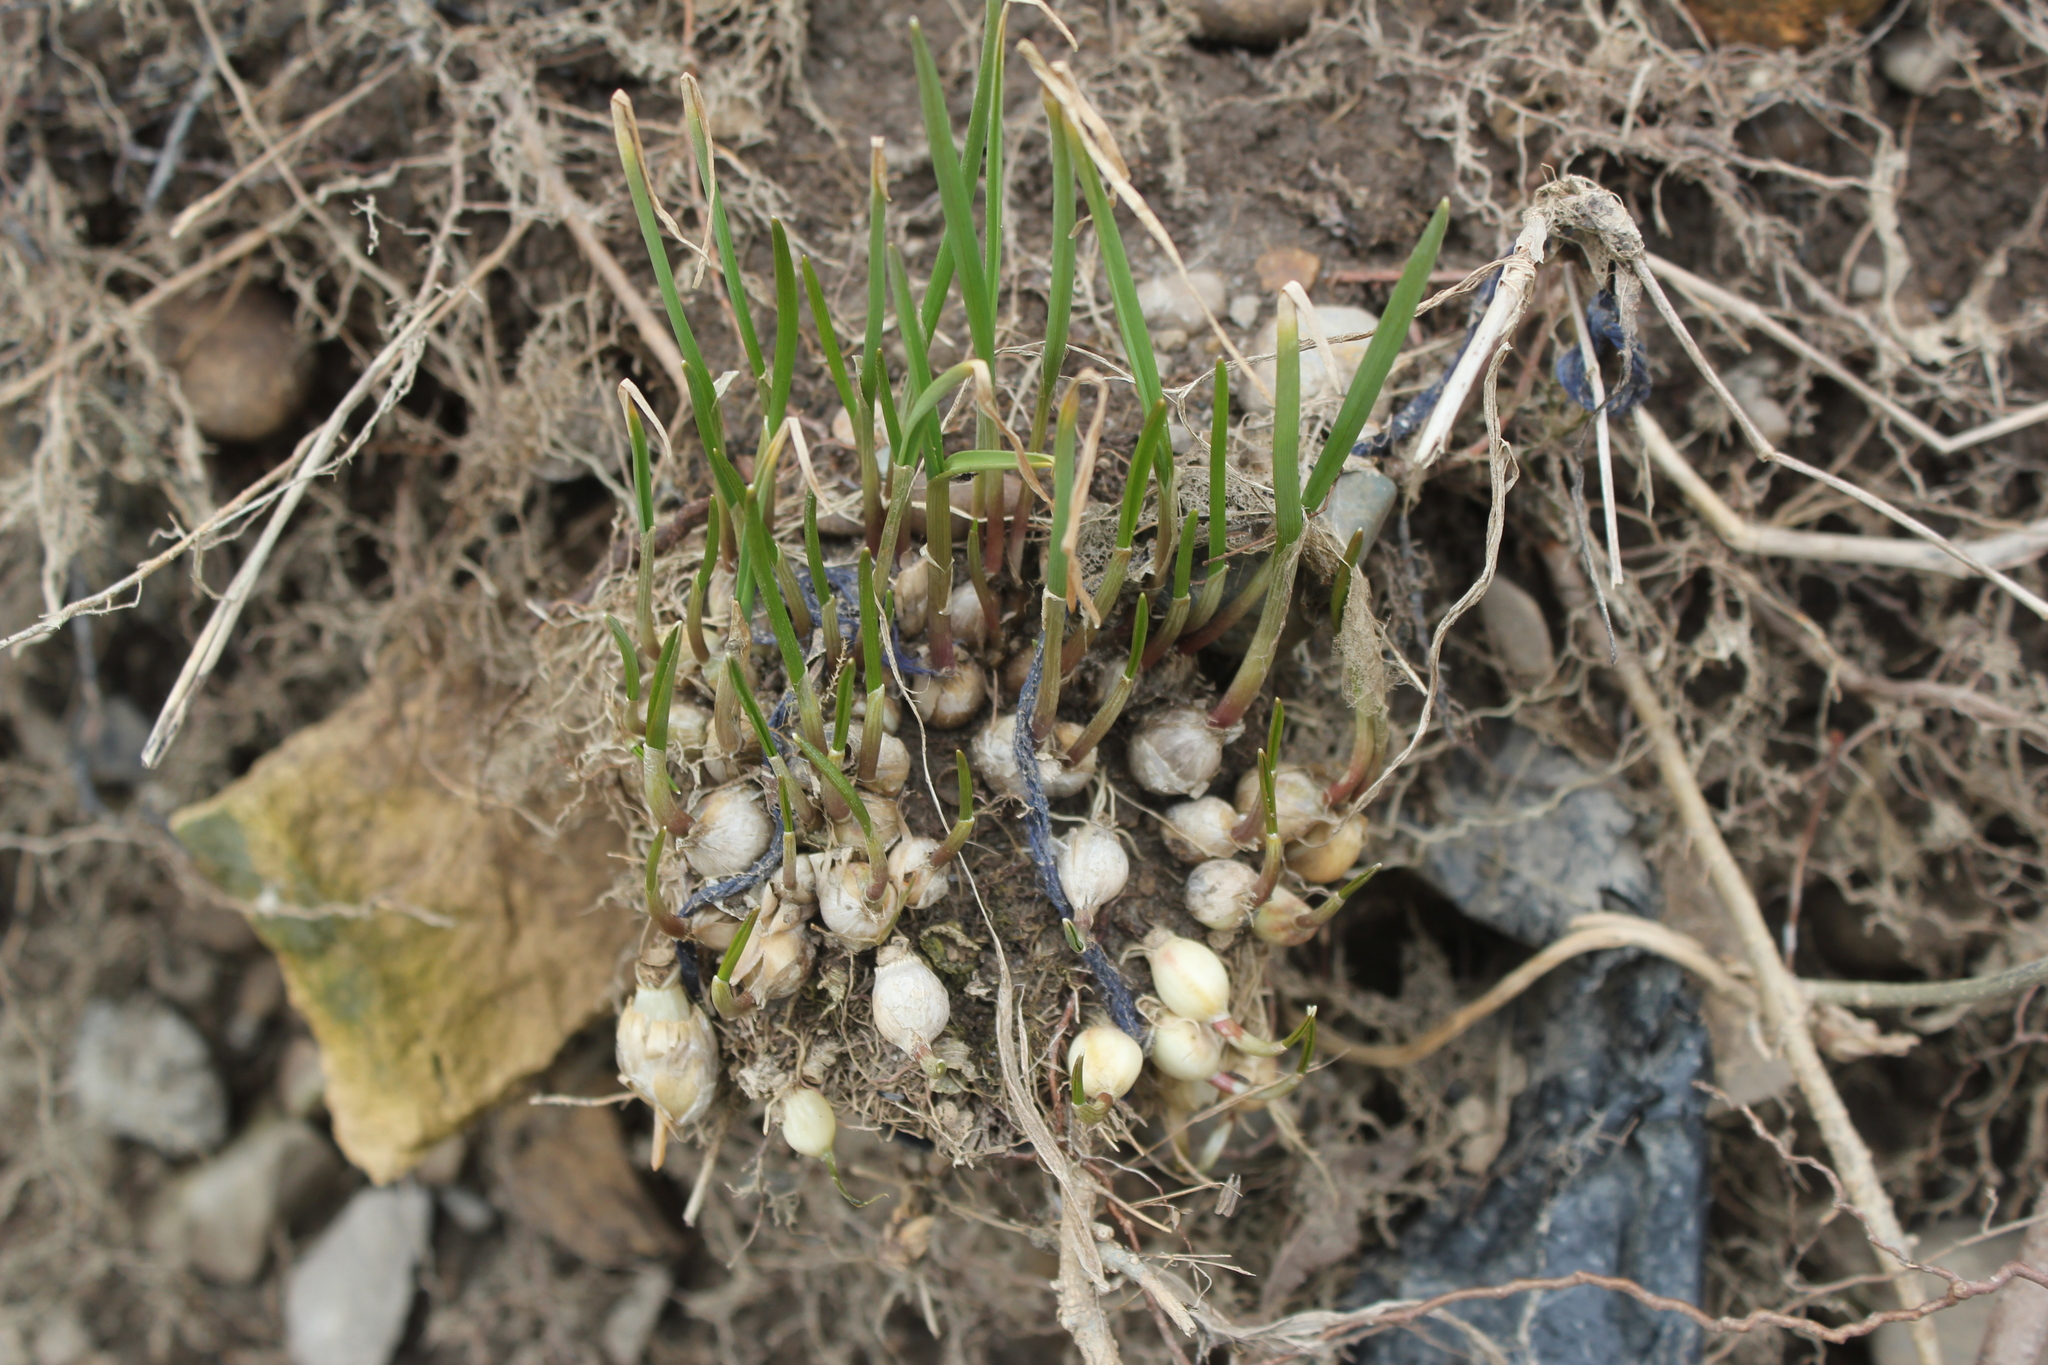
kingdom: Plantae
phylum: Tracheophyta
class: Liliopsida
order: Asparagales
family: Amaryllidaceae
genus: Allium
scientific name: Allium canadense
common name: Meadow garlic
